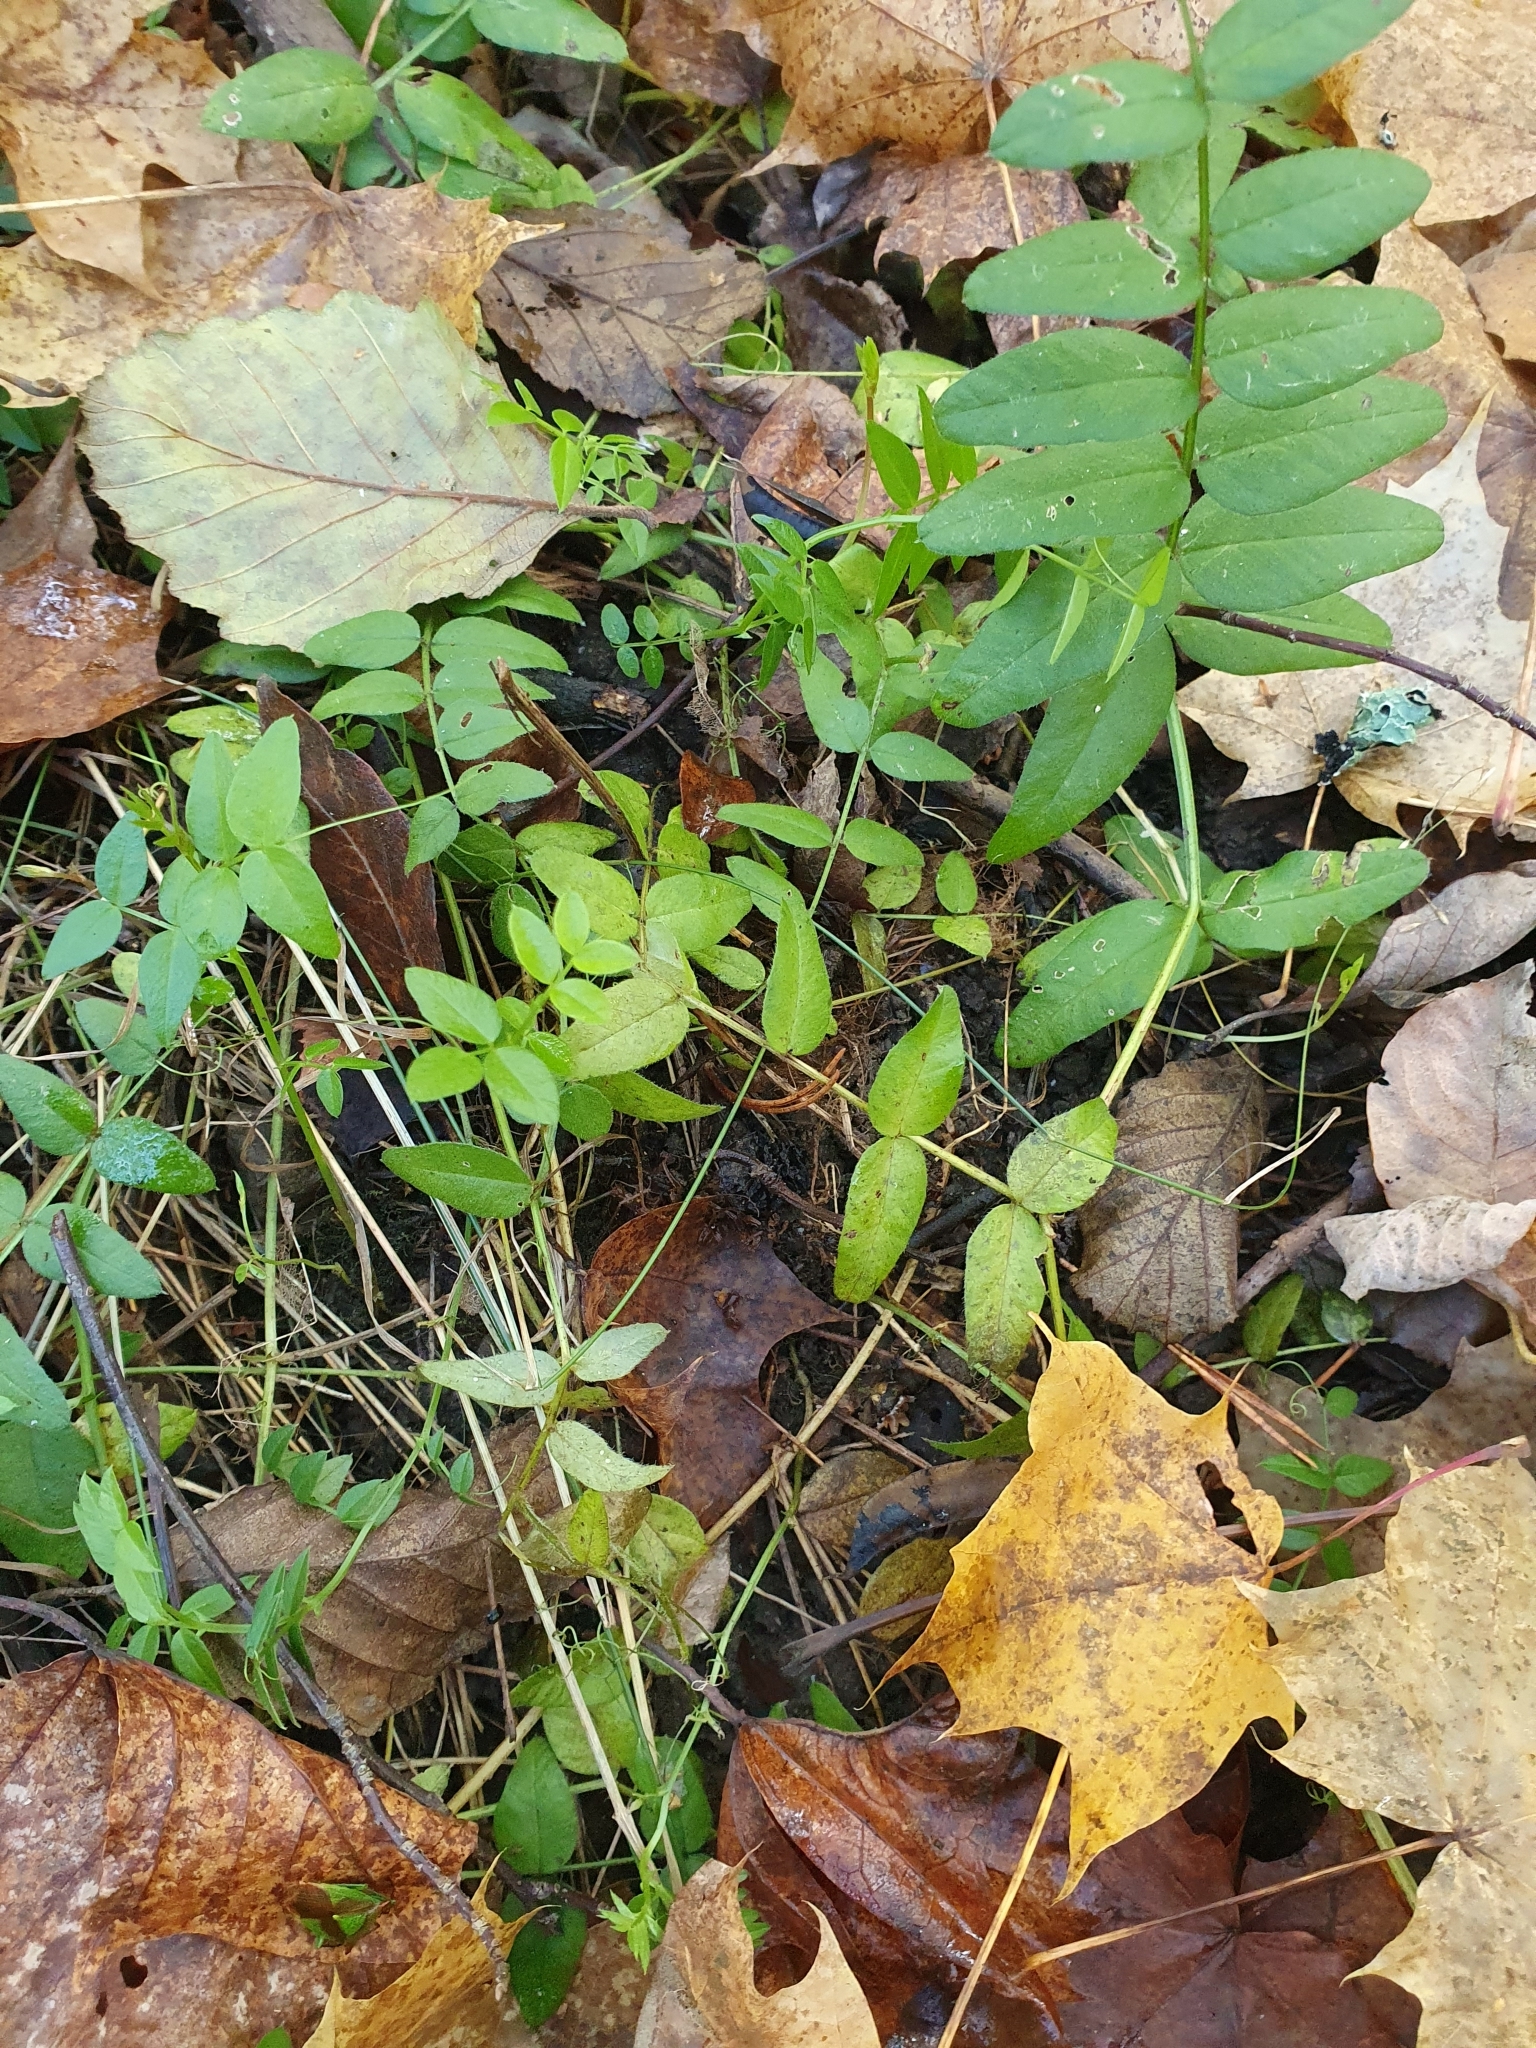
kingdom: Plantae
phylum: Tracheophyta
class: Magnoliopsida
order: Fabales
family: Fabaceae
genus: Vicia
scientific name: Vicia sepium
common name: Bush vetch
